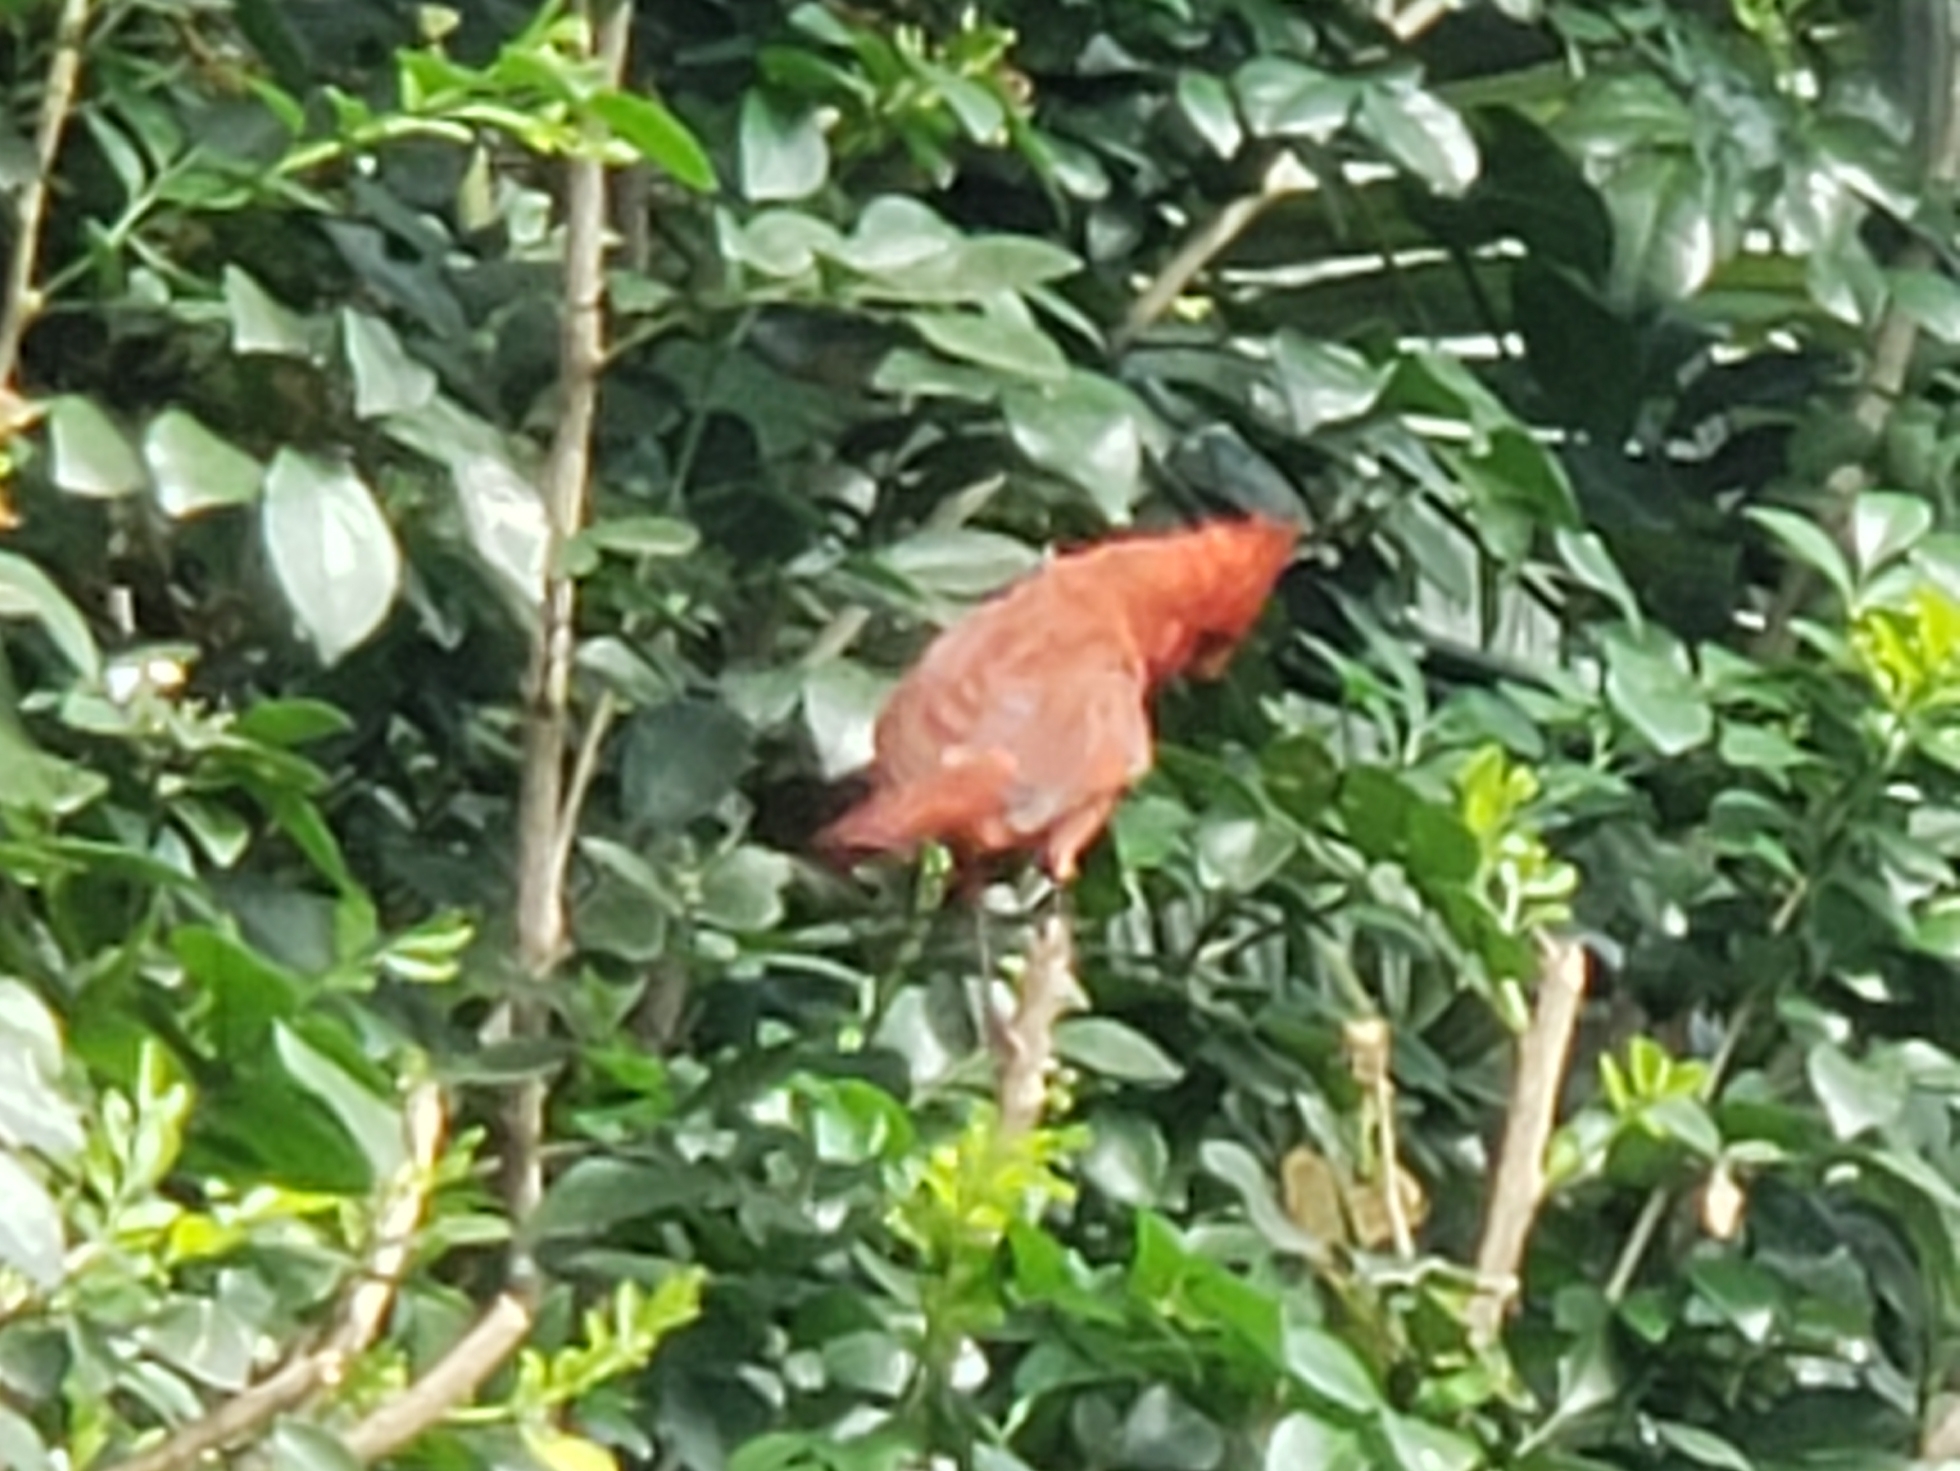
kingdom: Animalia
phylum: Chordata
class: Aves
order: Passeriformes
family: Cardinalidae
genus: Cardinalis
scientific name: Cardinalis cardinalis
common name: Northern cardinal
